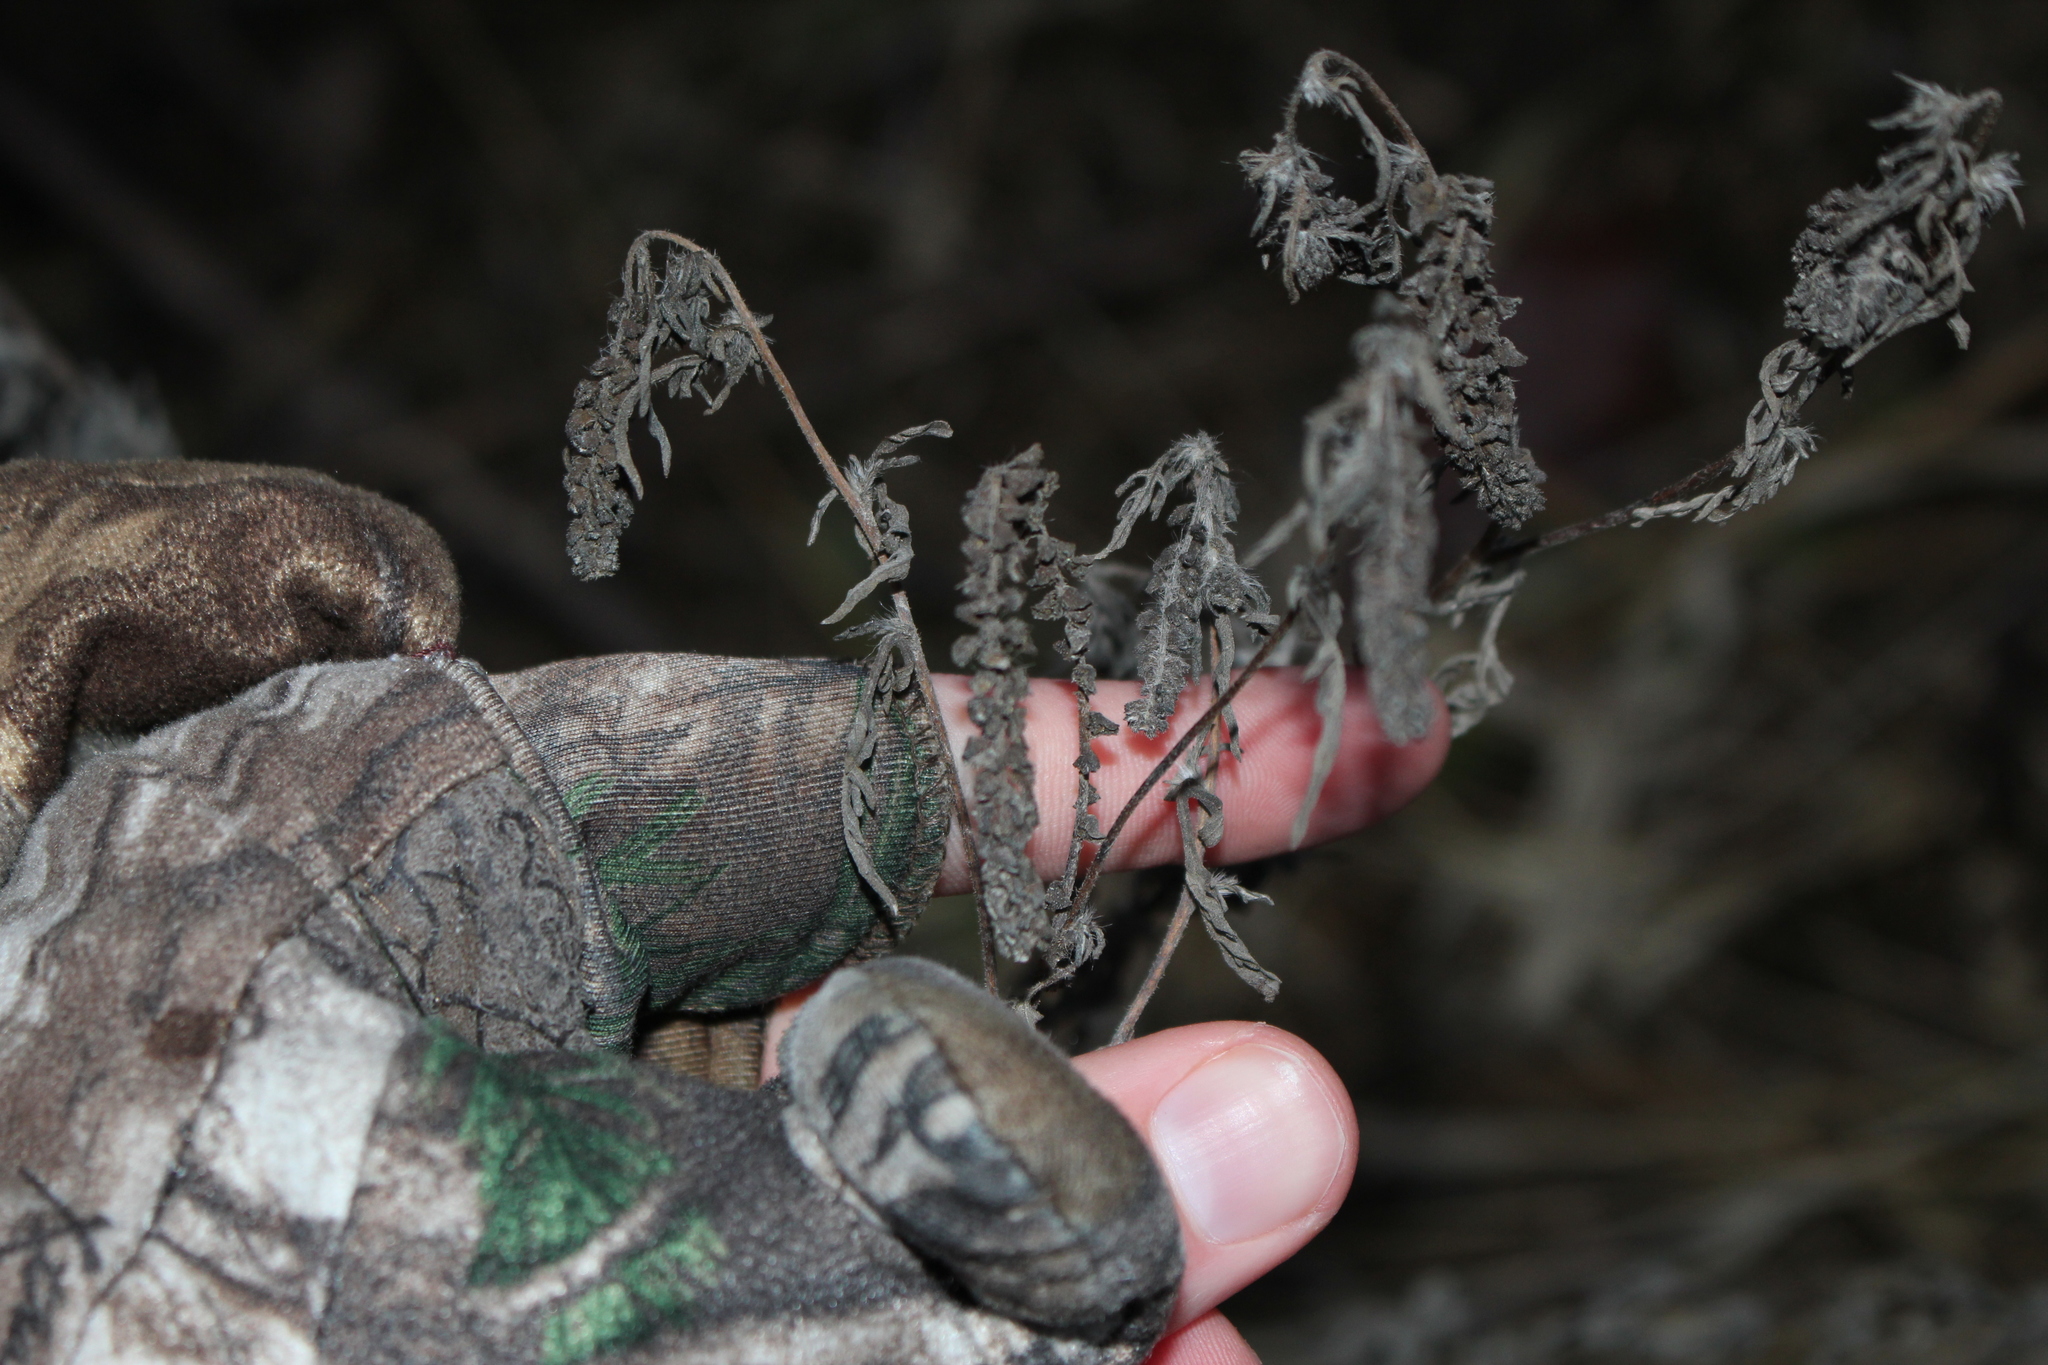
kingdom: Plantae
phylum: Tracheophyta
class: Magnoliopsida
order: Asterales
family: Asteraceae
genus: Ambrosia
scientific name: Ambrosia artemisiifolia
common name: Annual ragweed
